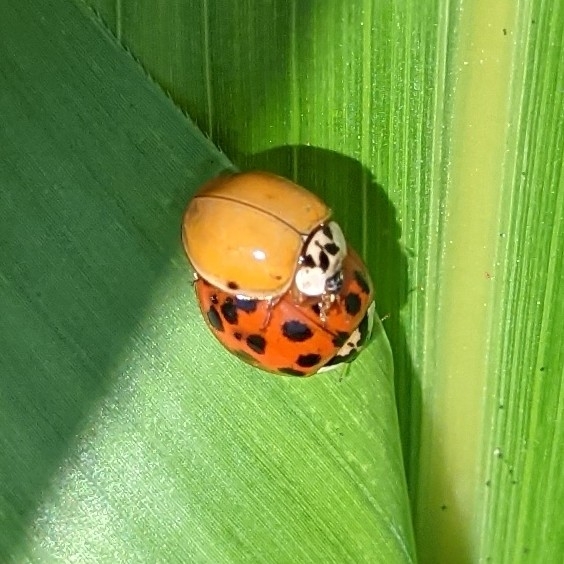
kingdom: Animalia
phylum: Arthropoda
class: Insecta
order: Coleoptera
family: Coccinellidae
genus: Harmonia
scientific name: Harmonia axyridis
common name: Harlequin ladybird
